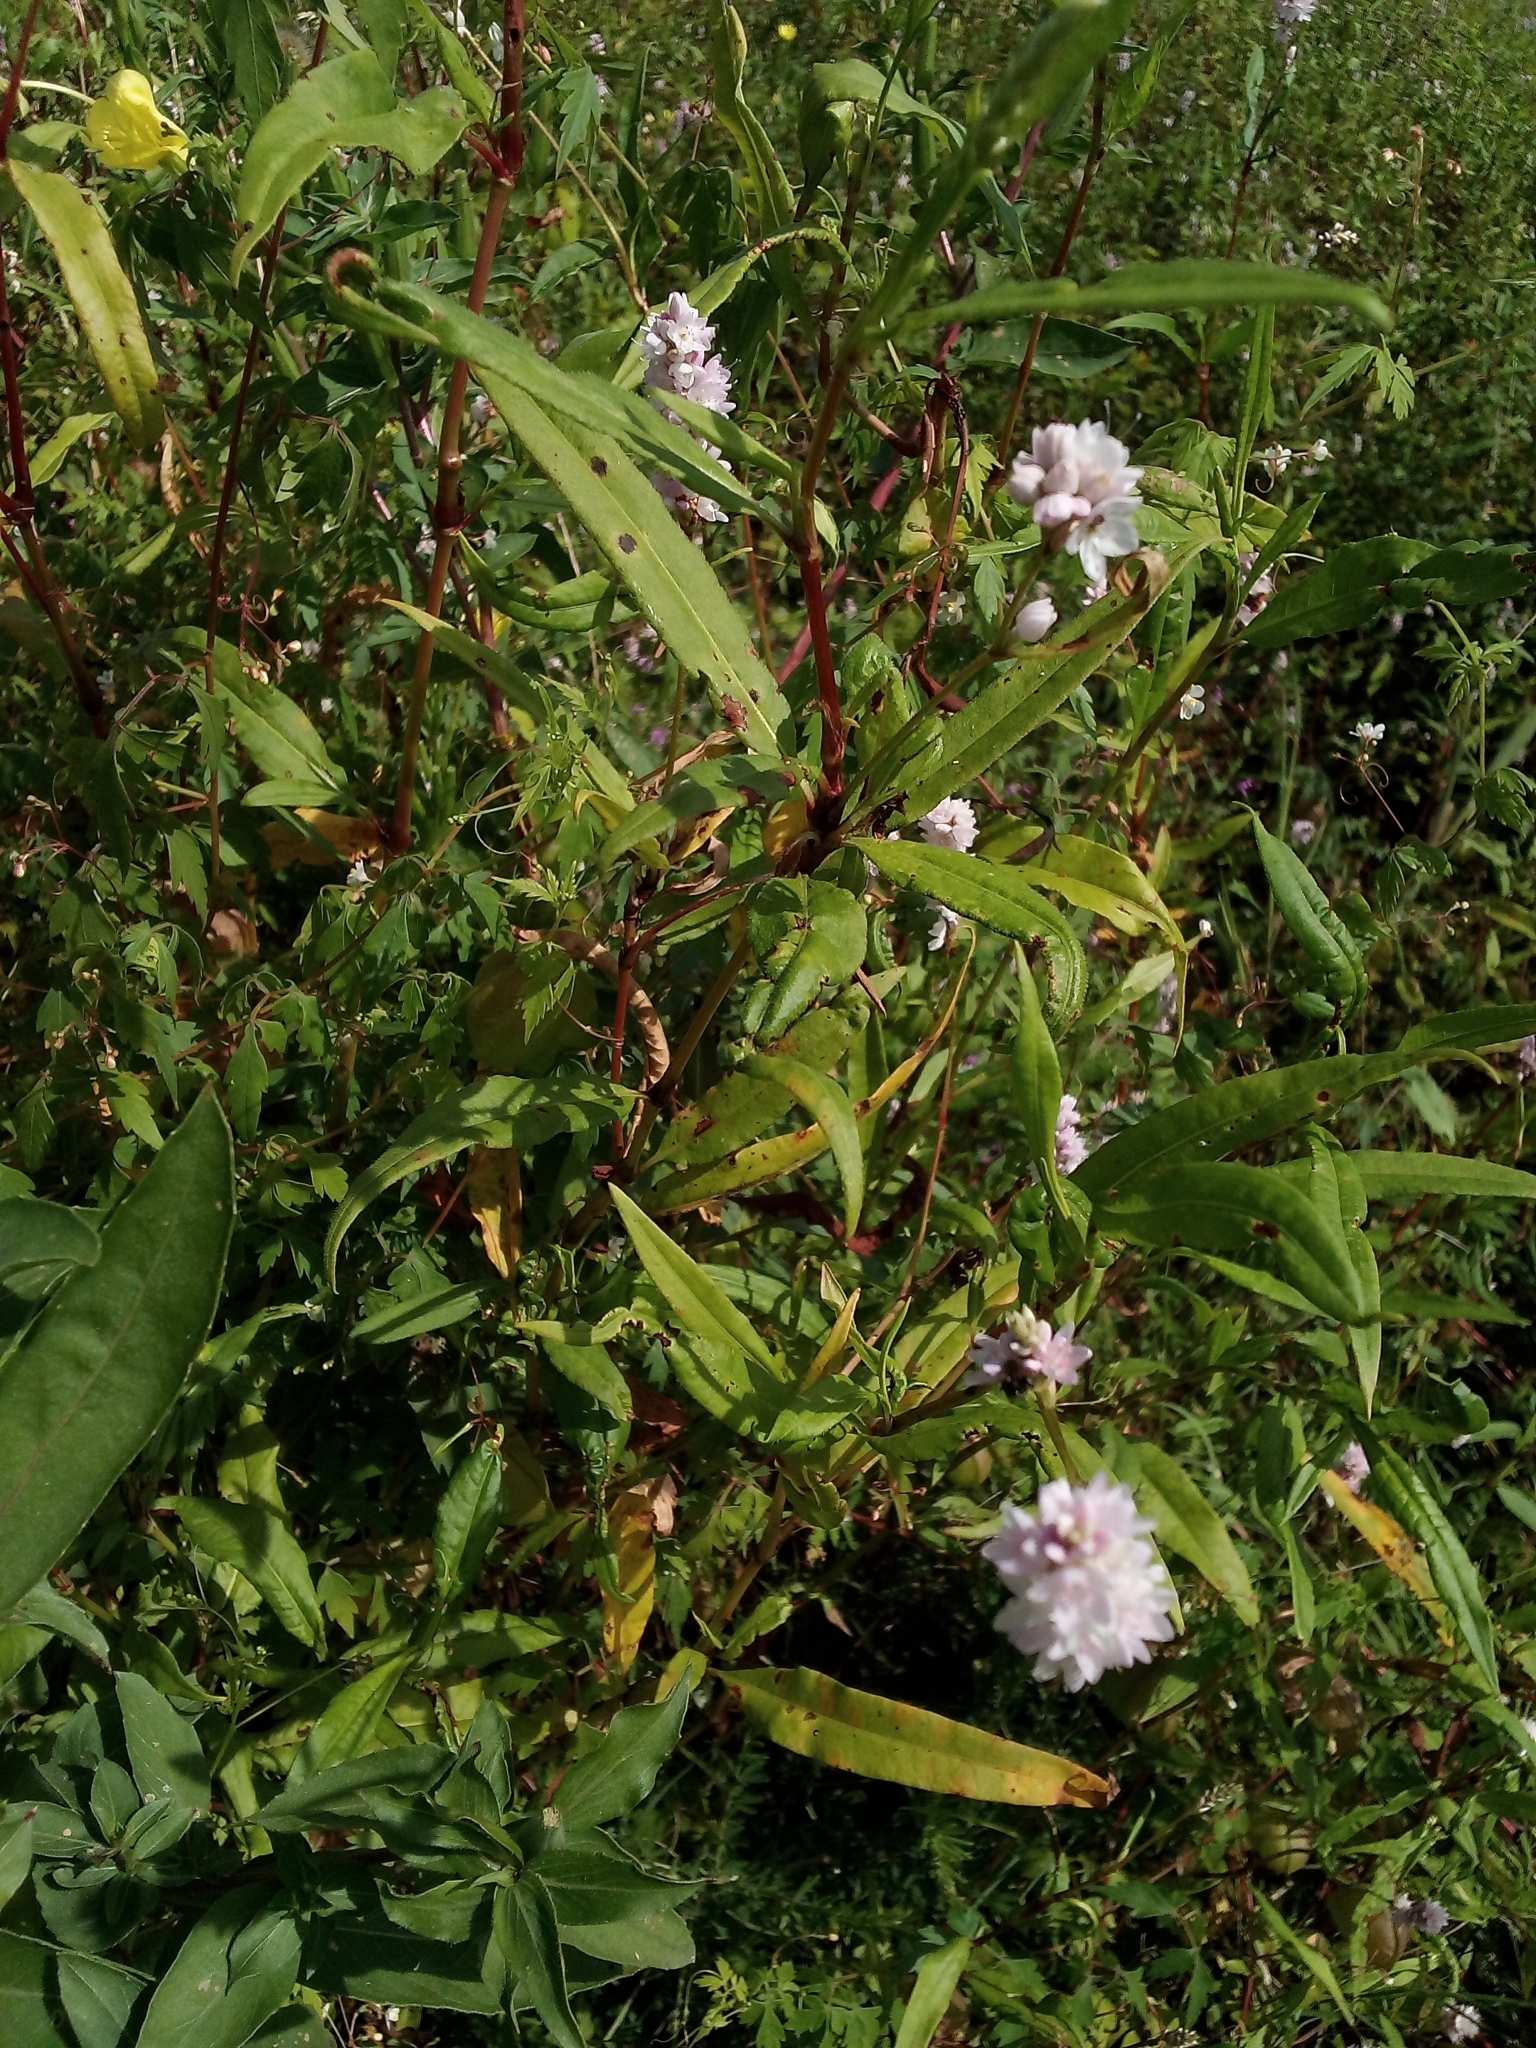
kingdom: Plantae
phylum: Tracheophyta
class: Magnoliopsida
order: Caryophyllales
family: Polygonaceae
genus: Persicaria
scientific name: Persicaria bicornis
